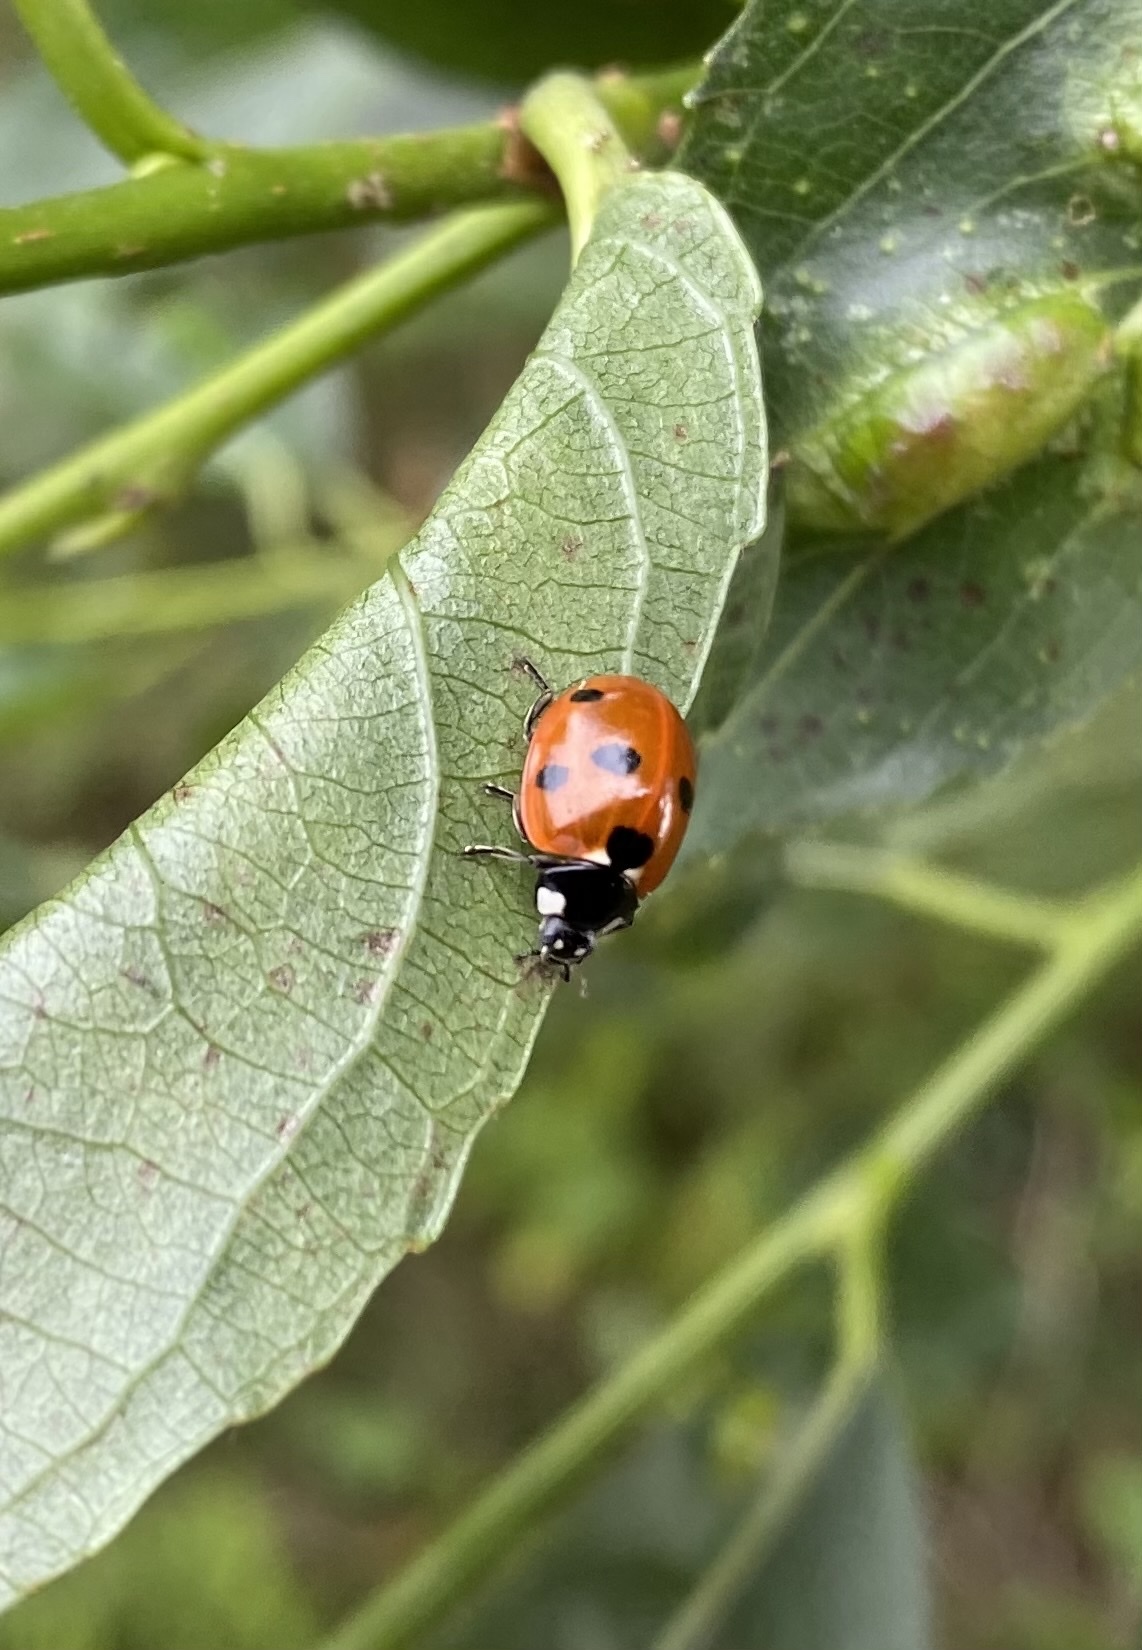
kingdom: Animalia
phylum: Arthropoda
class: Insecta
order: Coleoptera
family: Coccinellidae
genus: Coccinella
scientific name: Coccinella septempunctata
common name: Sevenspotted lady beetle
